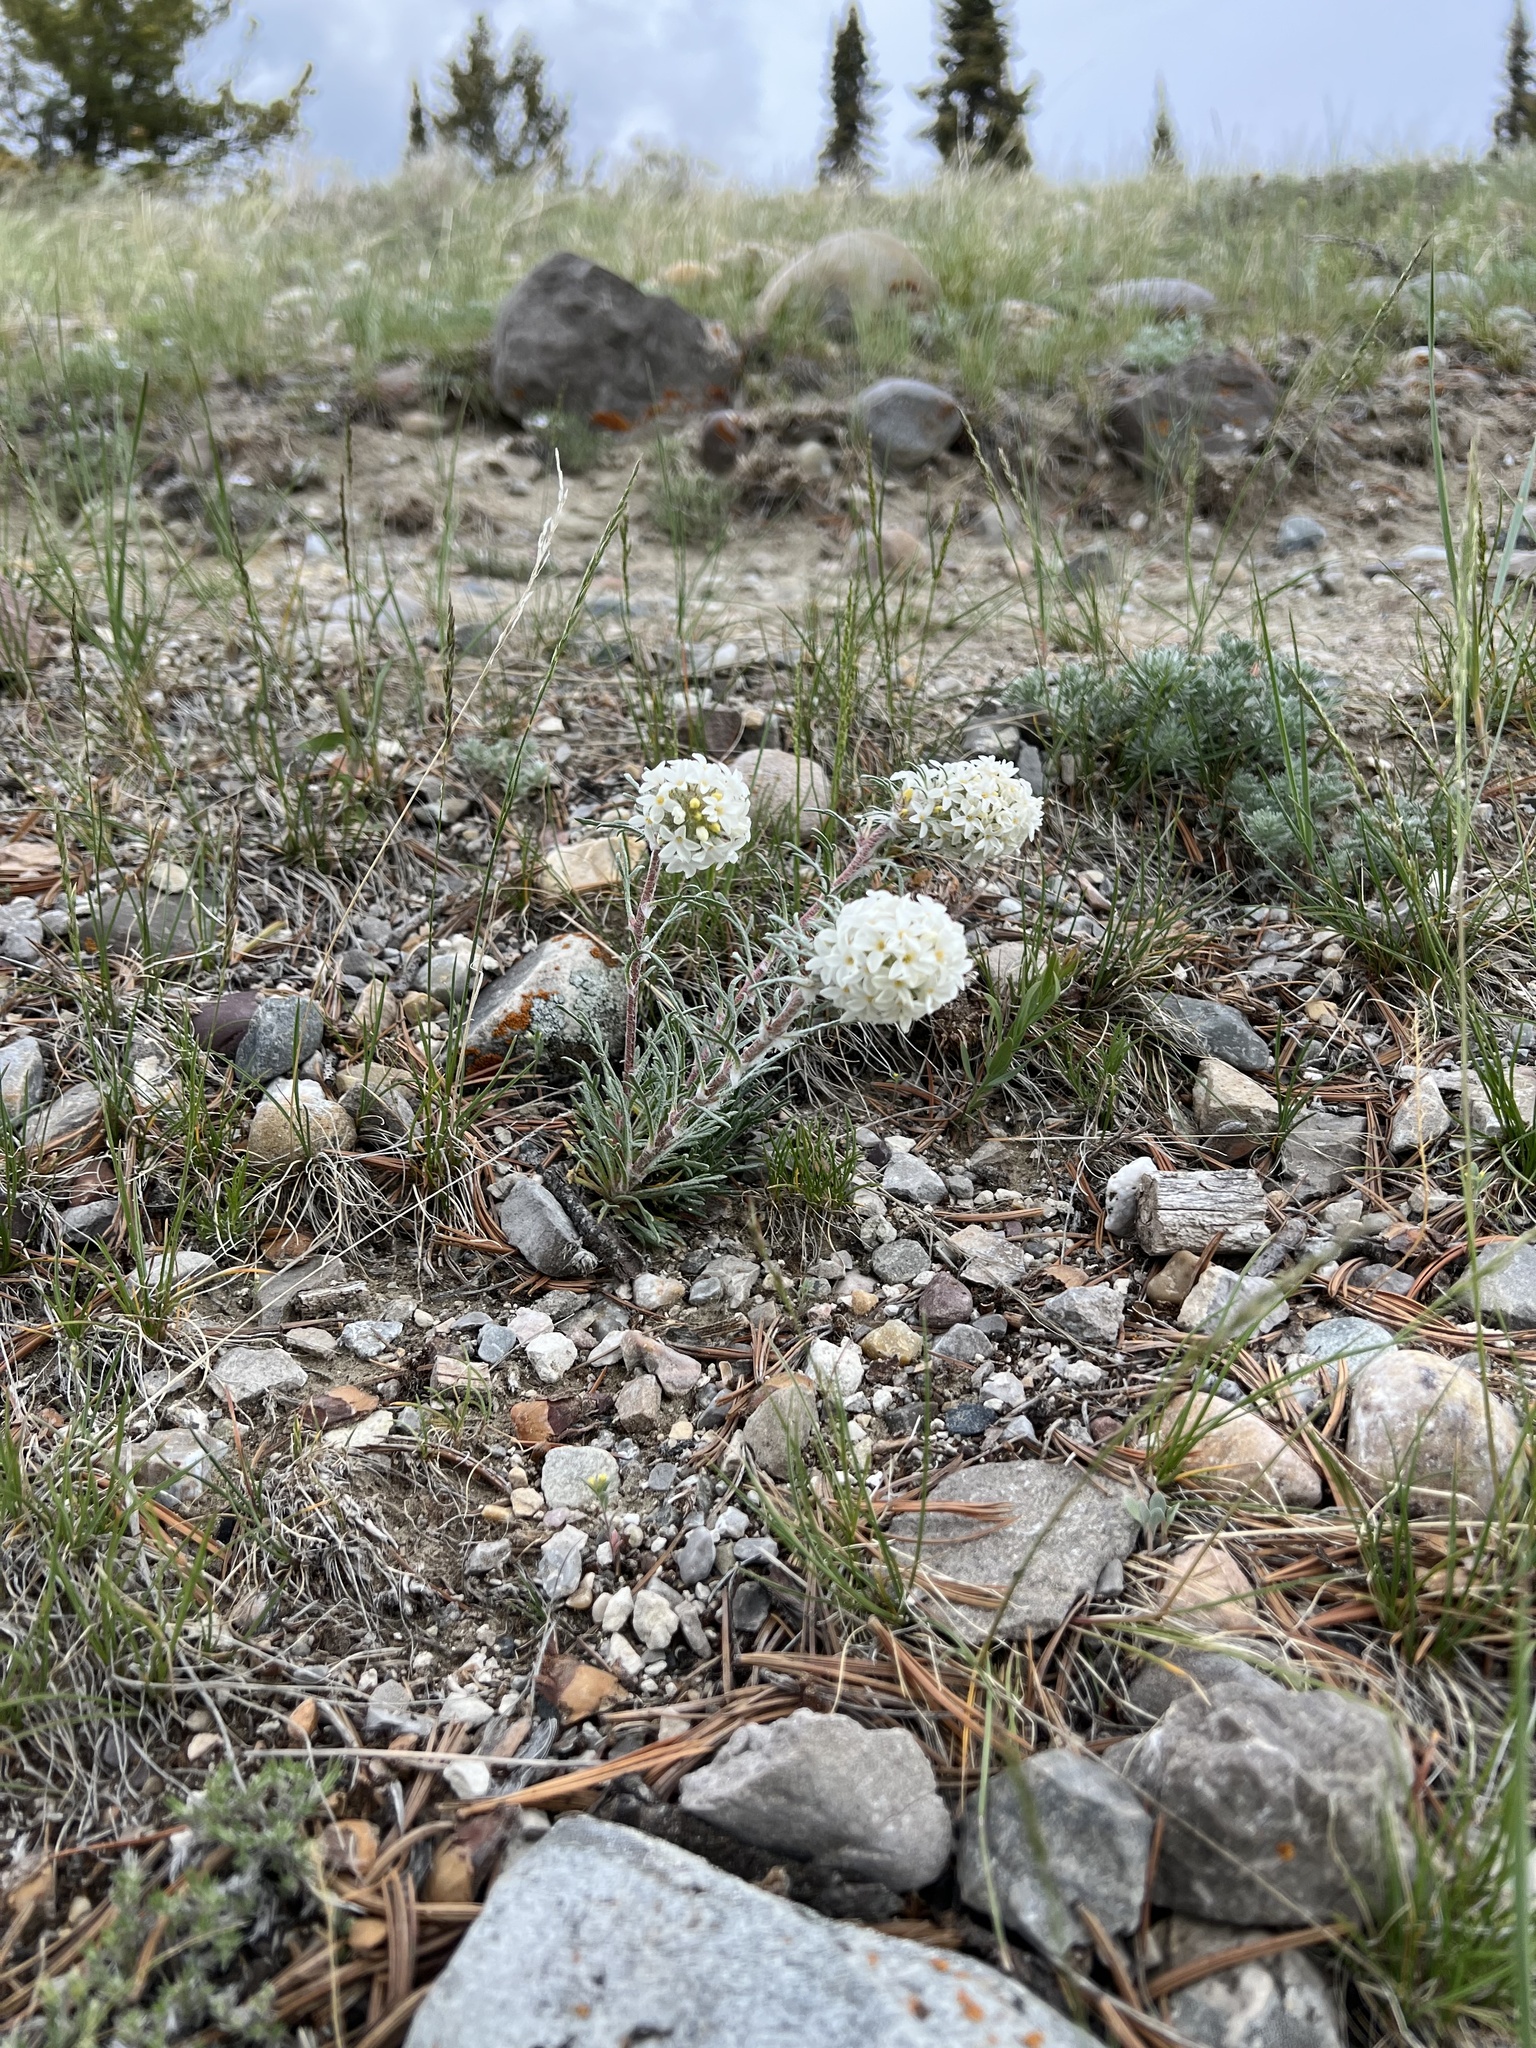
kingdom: Plantae
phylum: Tracheophyta
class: Magnoliopsida
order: Ericales
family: Polemoniaceae
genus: Ipomopsis
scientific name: Ipomopsis spicata
